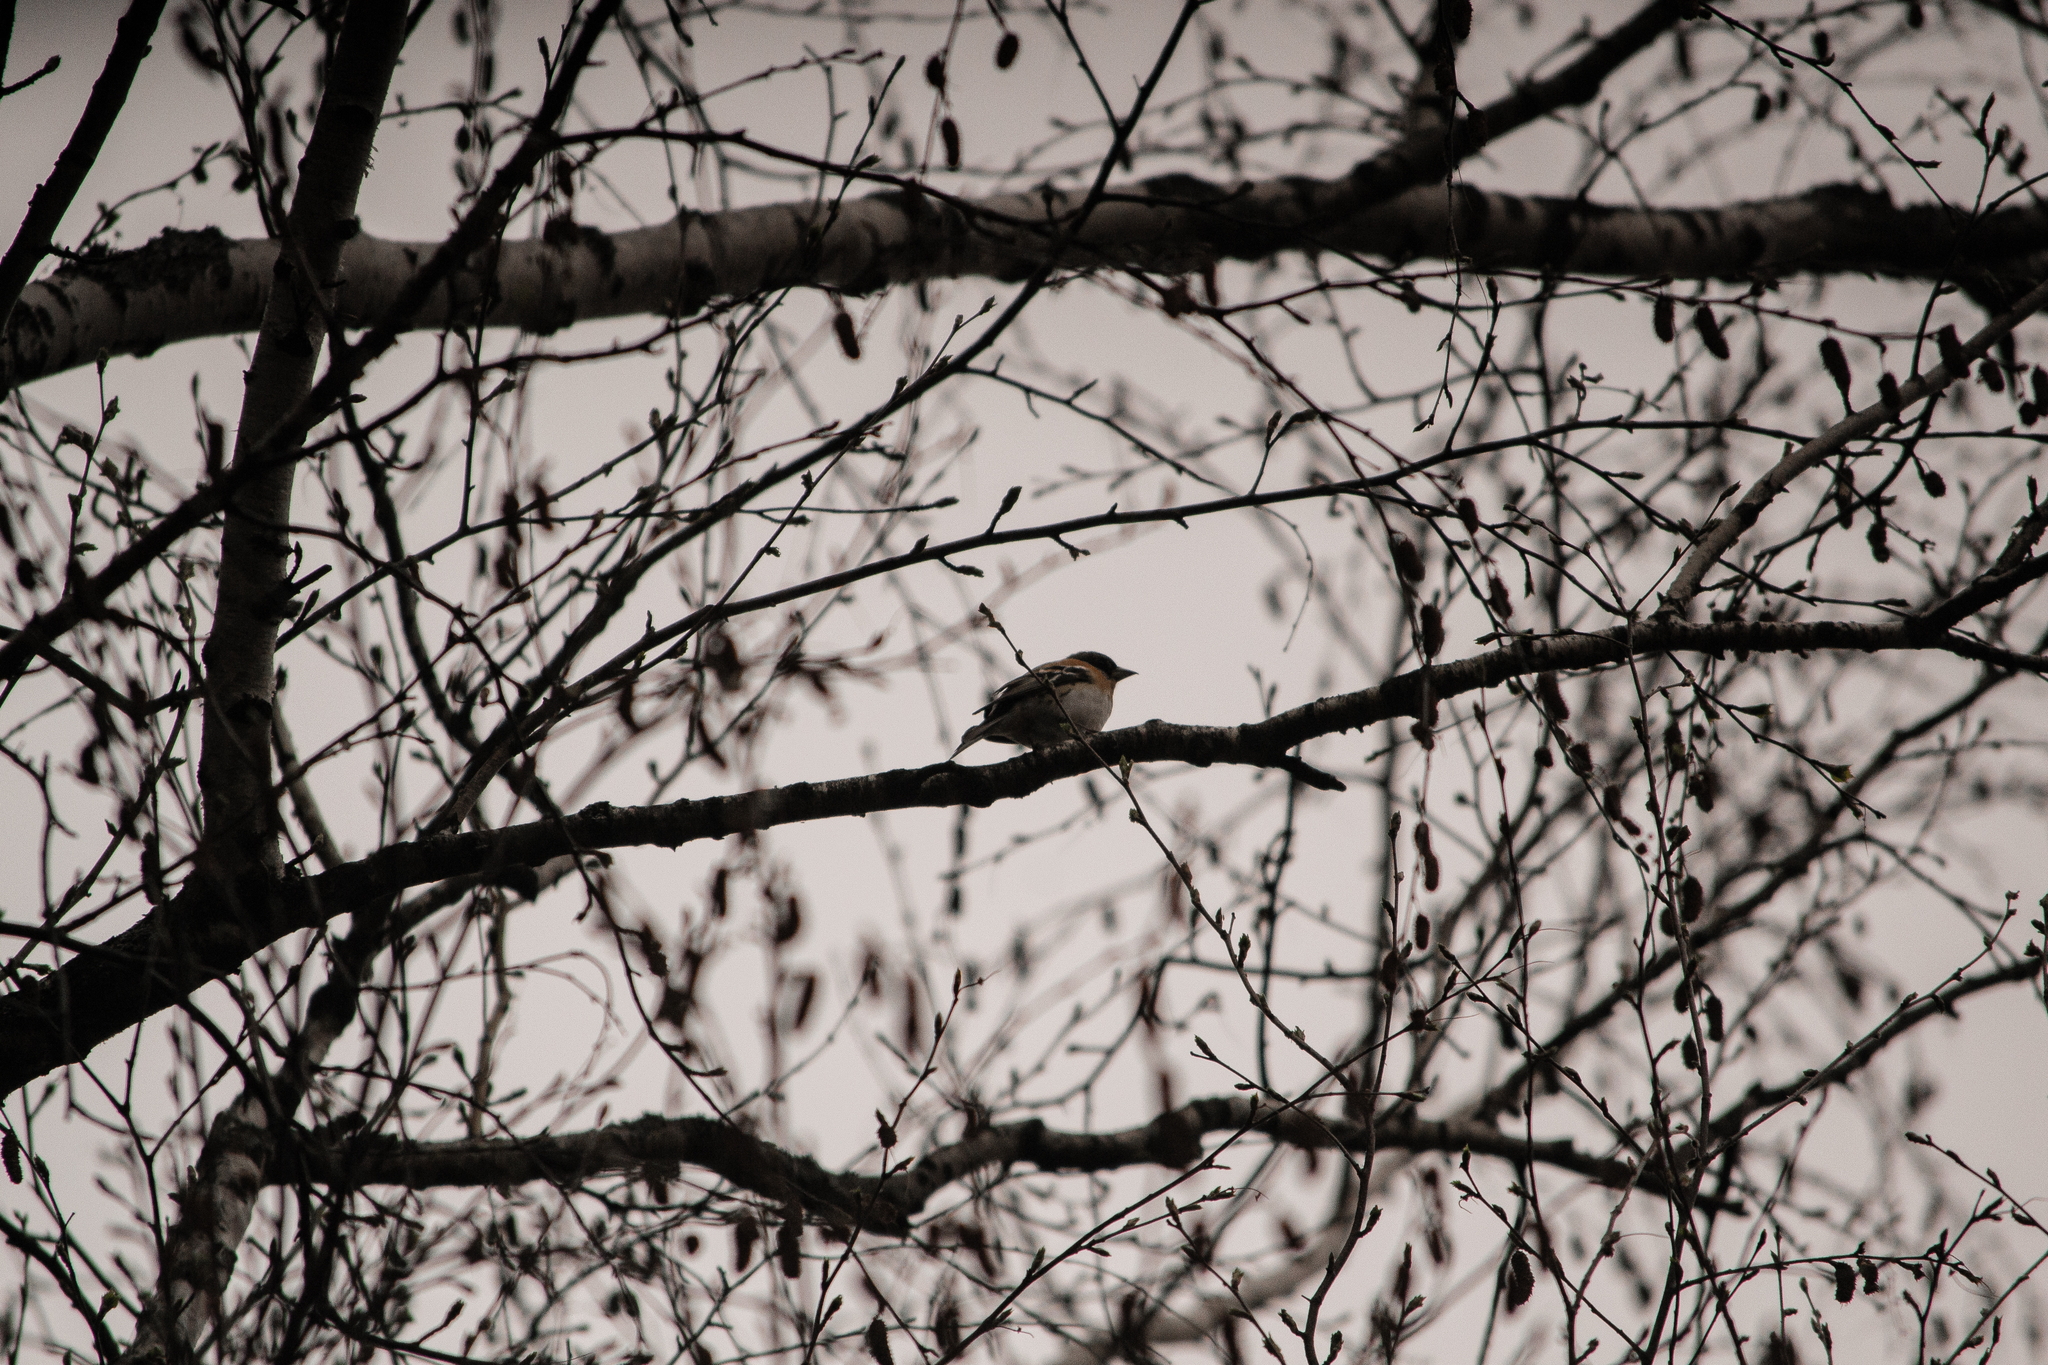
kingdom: Animalia
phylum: Chordata
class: Aves
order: Passeriformes
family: Fringillidae
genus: Fringilla
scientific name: Fringilla montifringilla
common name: Brambling
